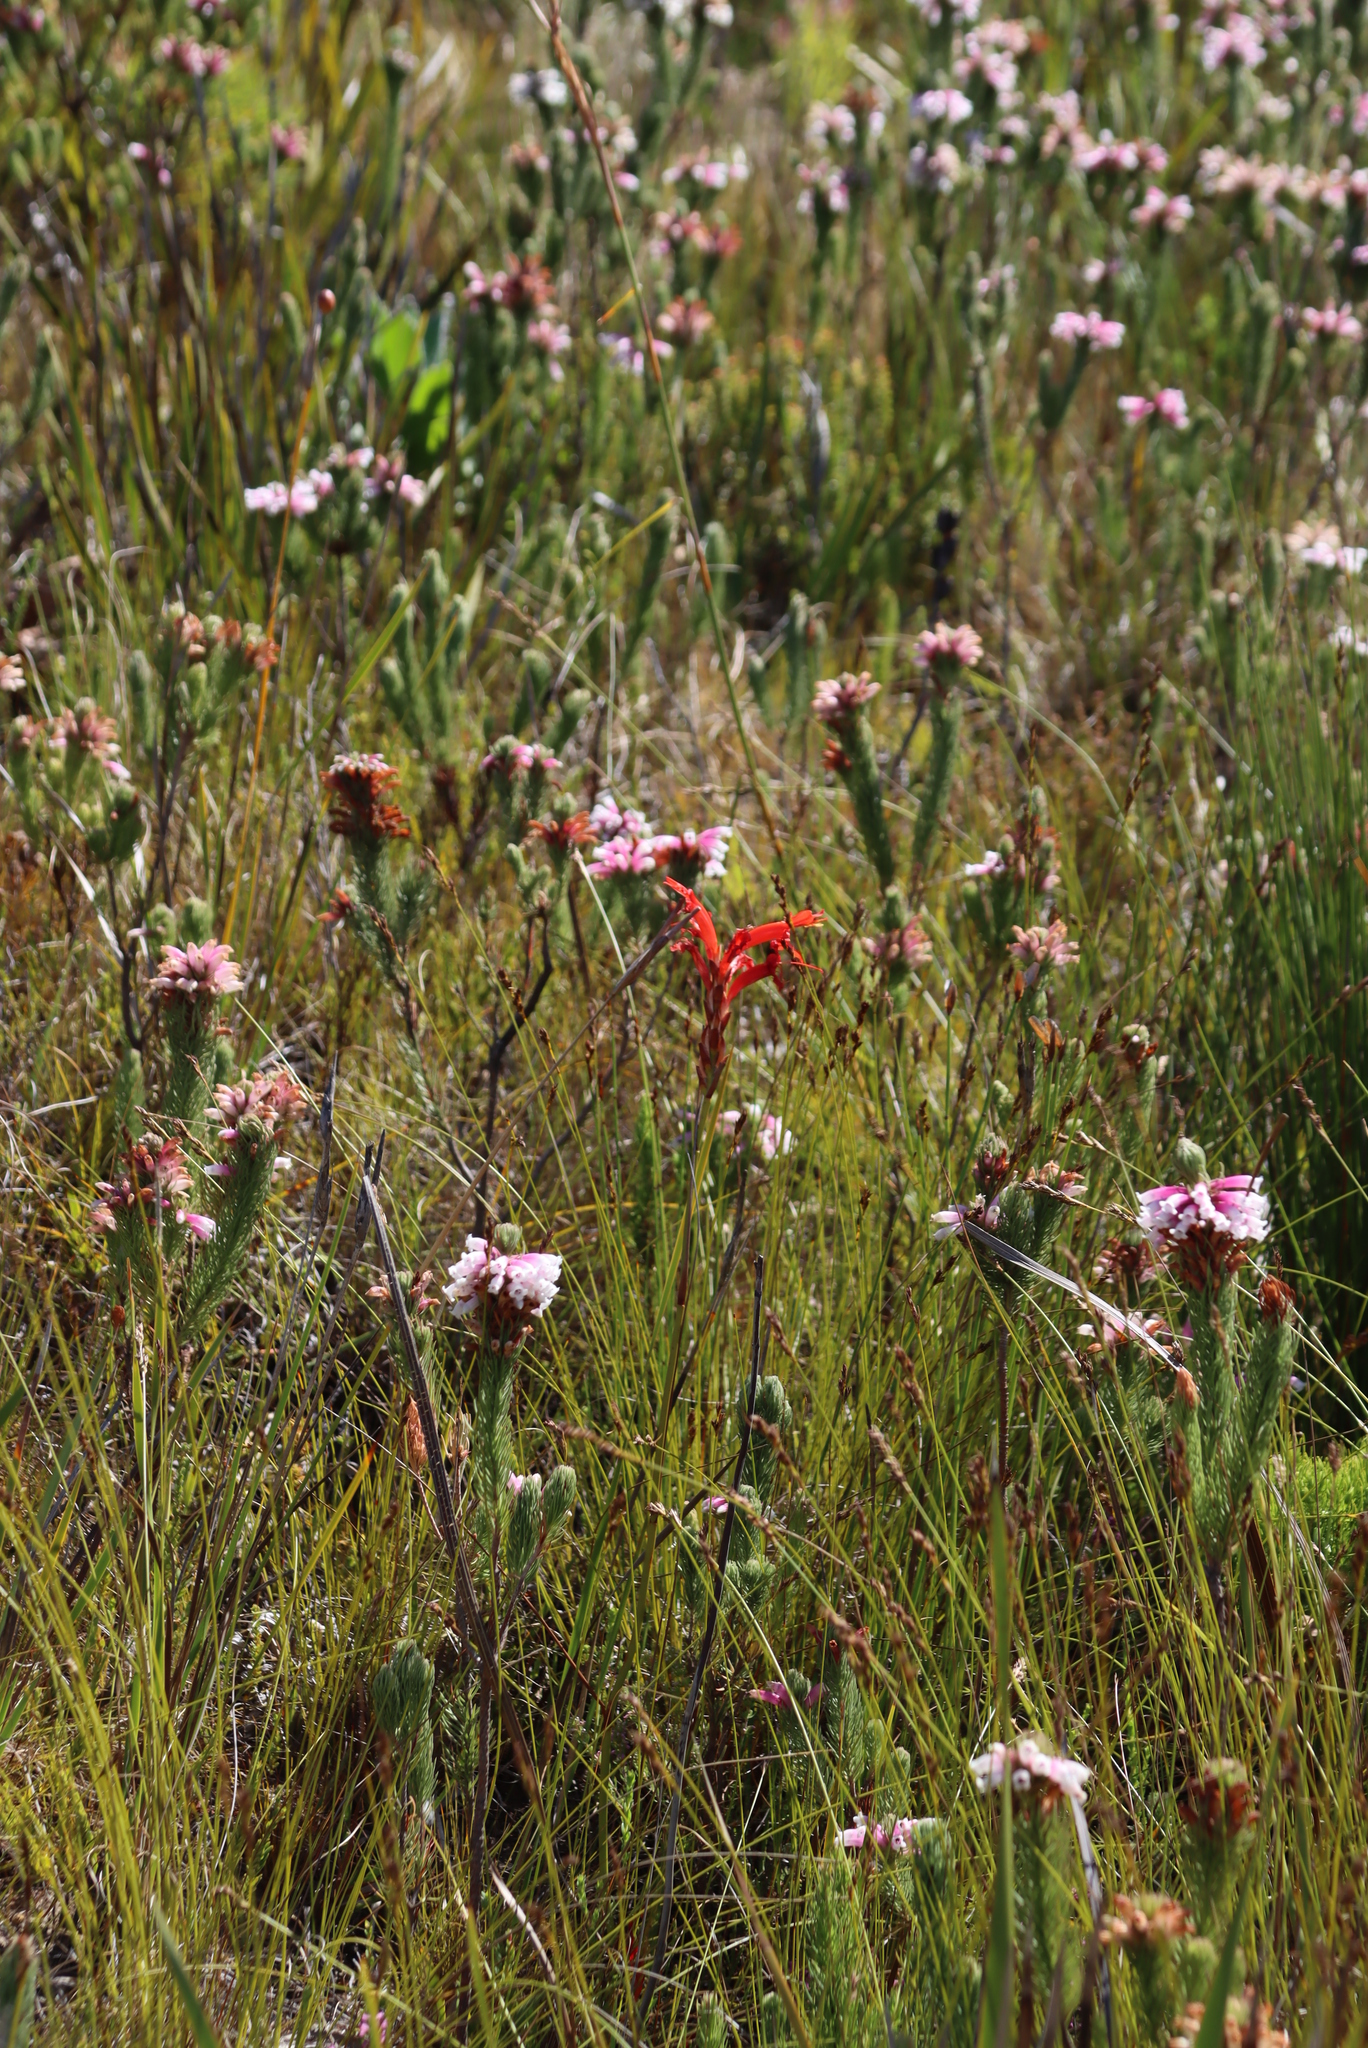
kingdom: Plantae
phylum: Tracheophyta
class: Liliopsida
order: Asparagales
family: Iridaceae
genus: Tritoniopsis
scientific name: Tritoniopsis triticea
